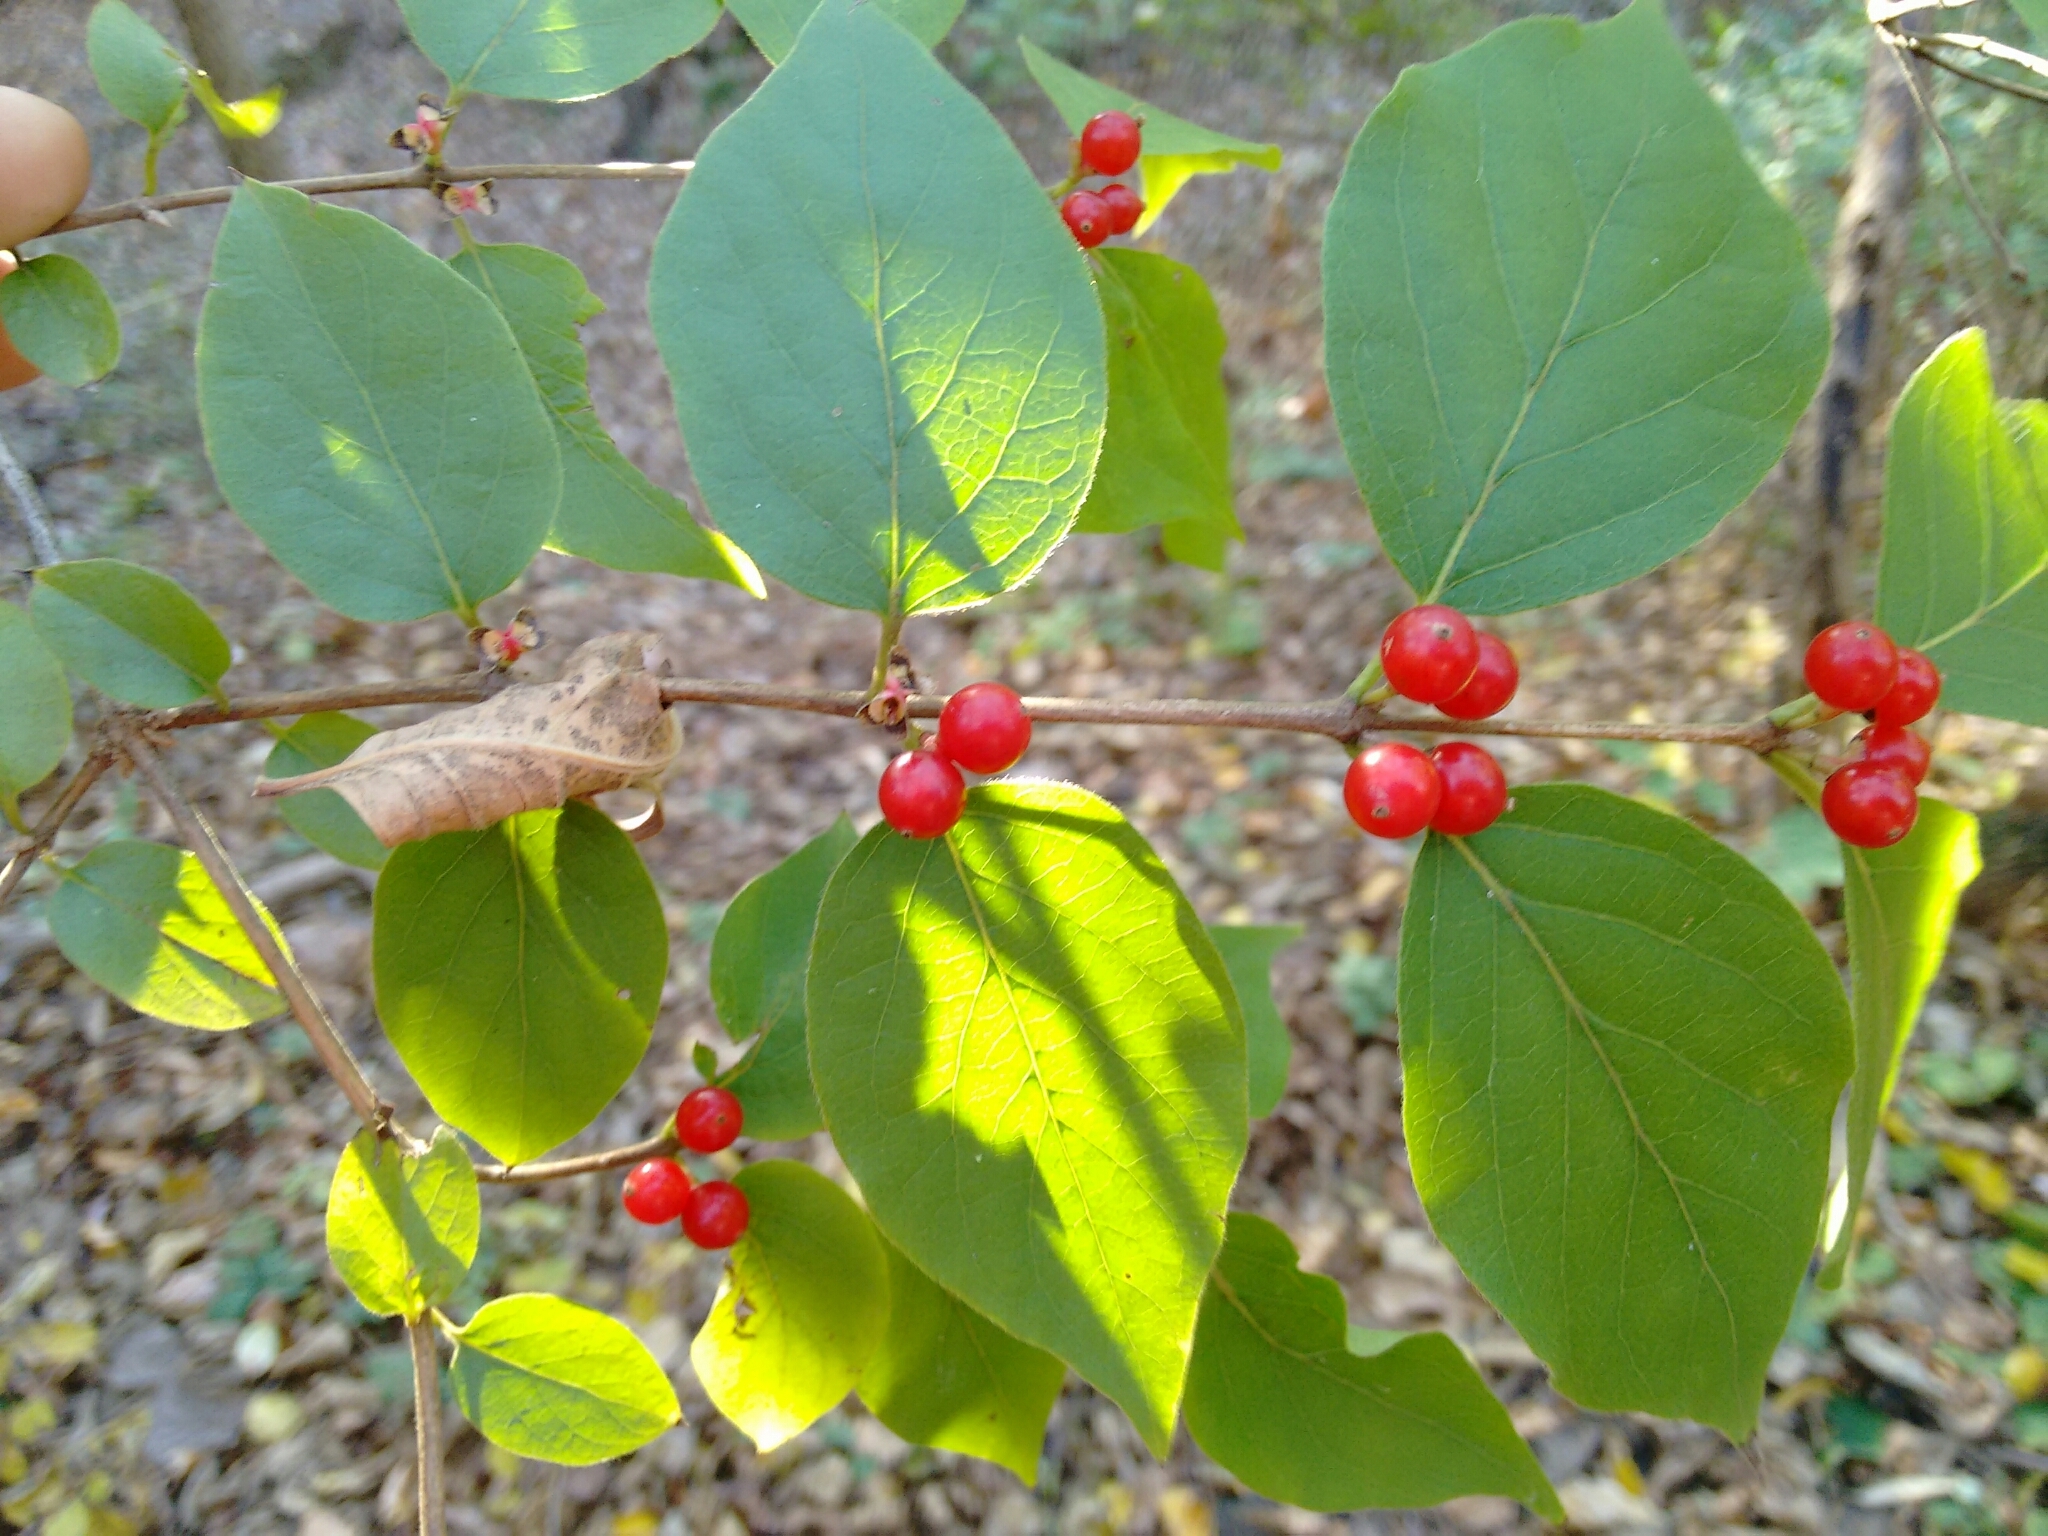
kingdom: Plantae
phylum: Tracheophyta
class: Magnoliopsida
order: Dipsacales
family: Caprifoliaceae
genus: Lonicera
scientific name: Lonicera maackii
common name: Amur honeysuckle
